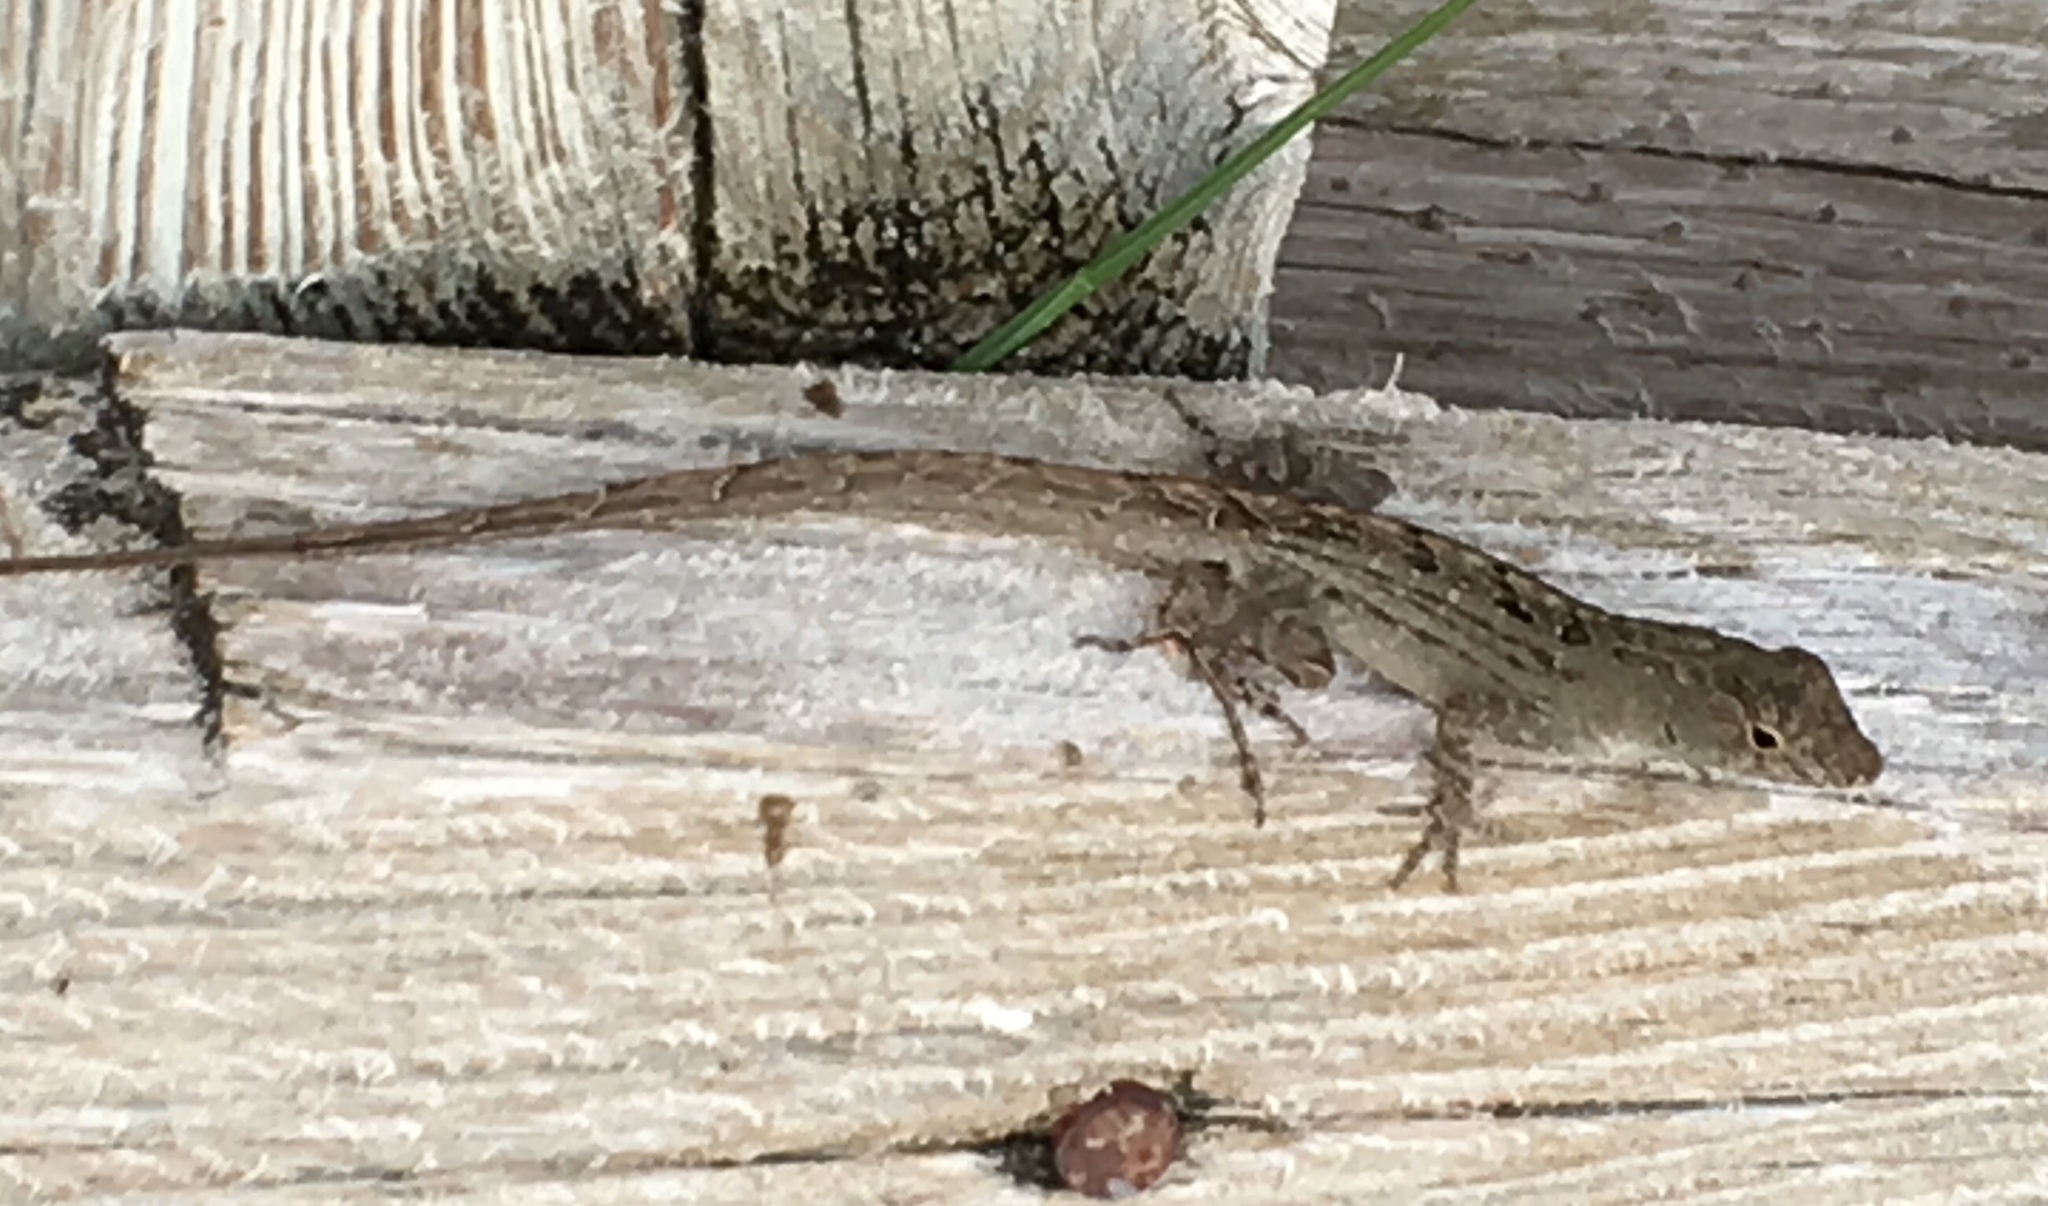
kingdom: Animalia
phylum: Chordata
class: Squamata
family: Dactyloidae
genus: Anolis
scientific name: Anolis sagrei
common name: Brown anole
